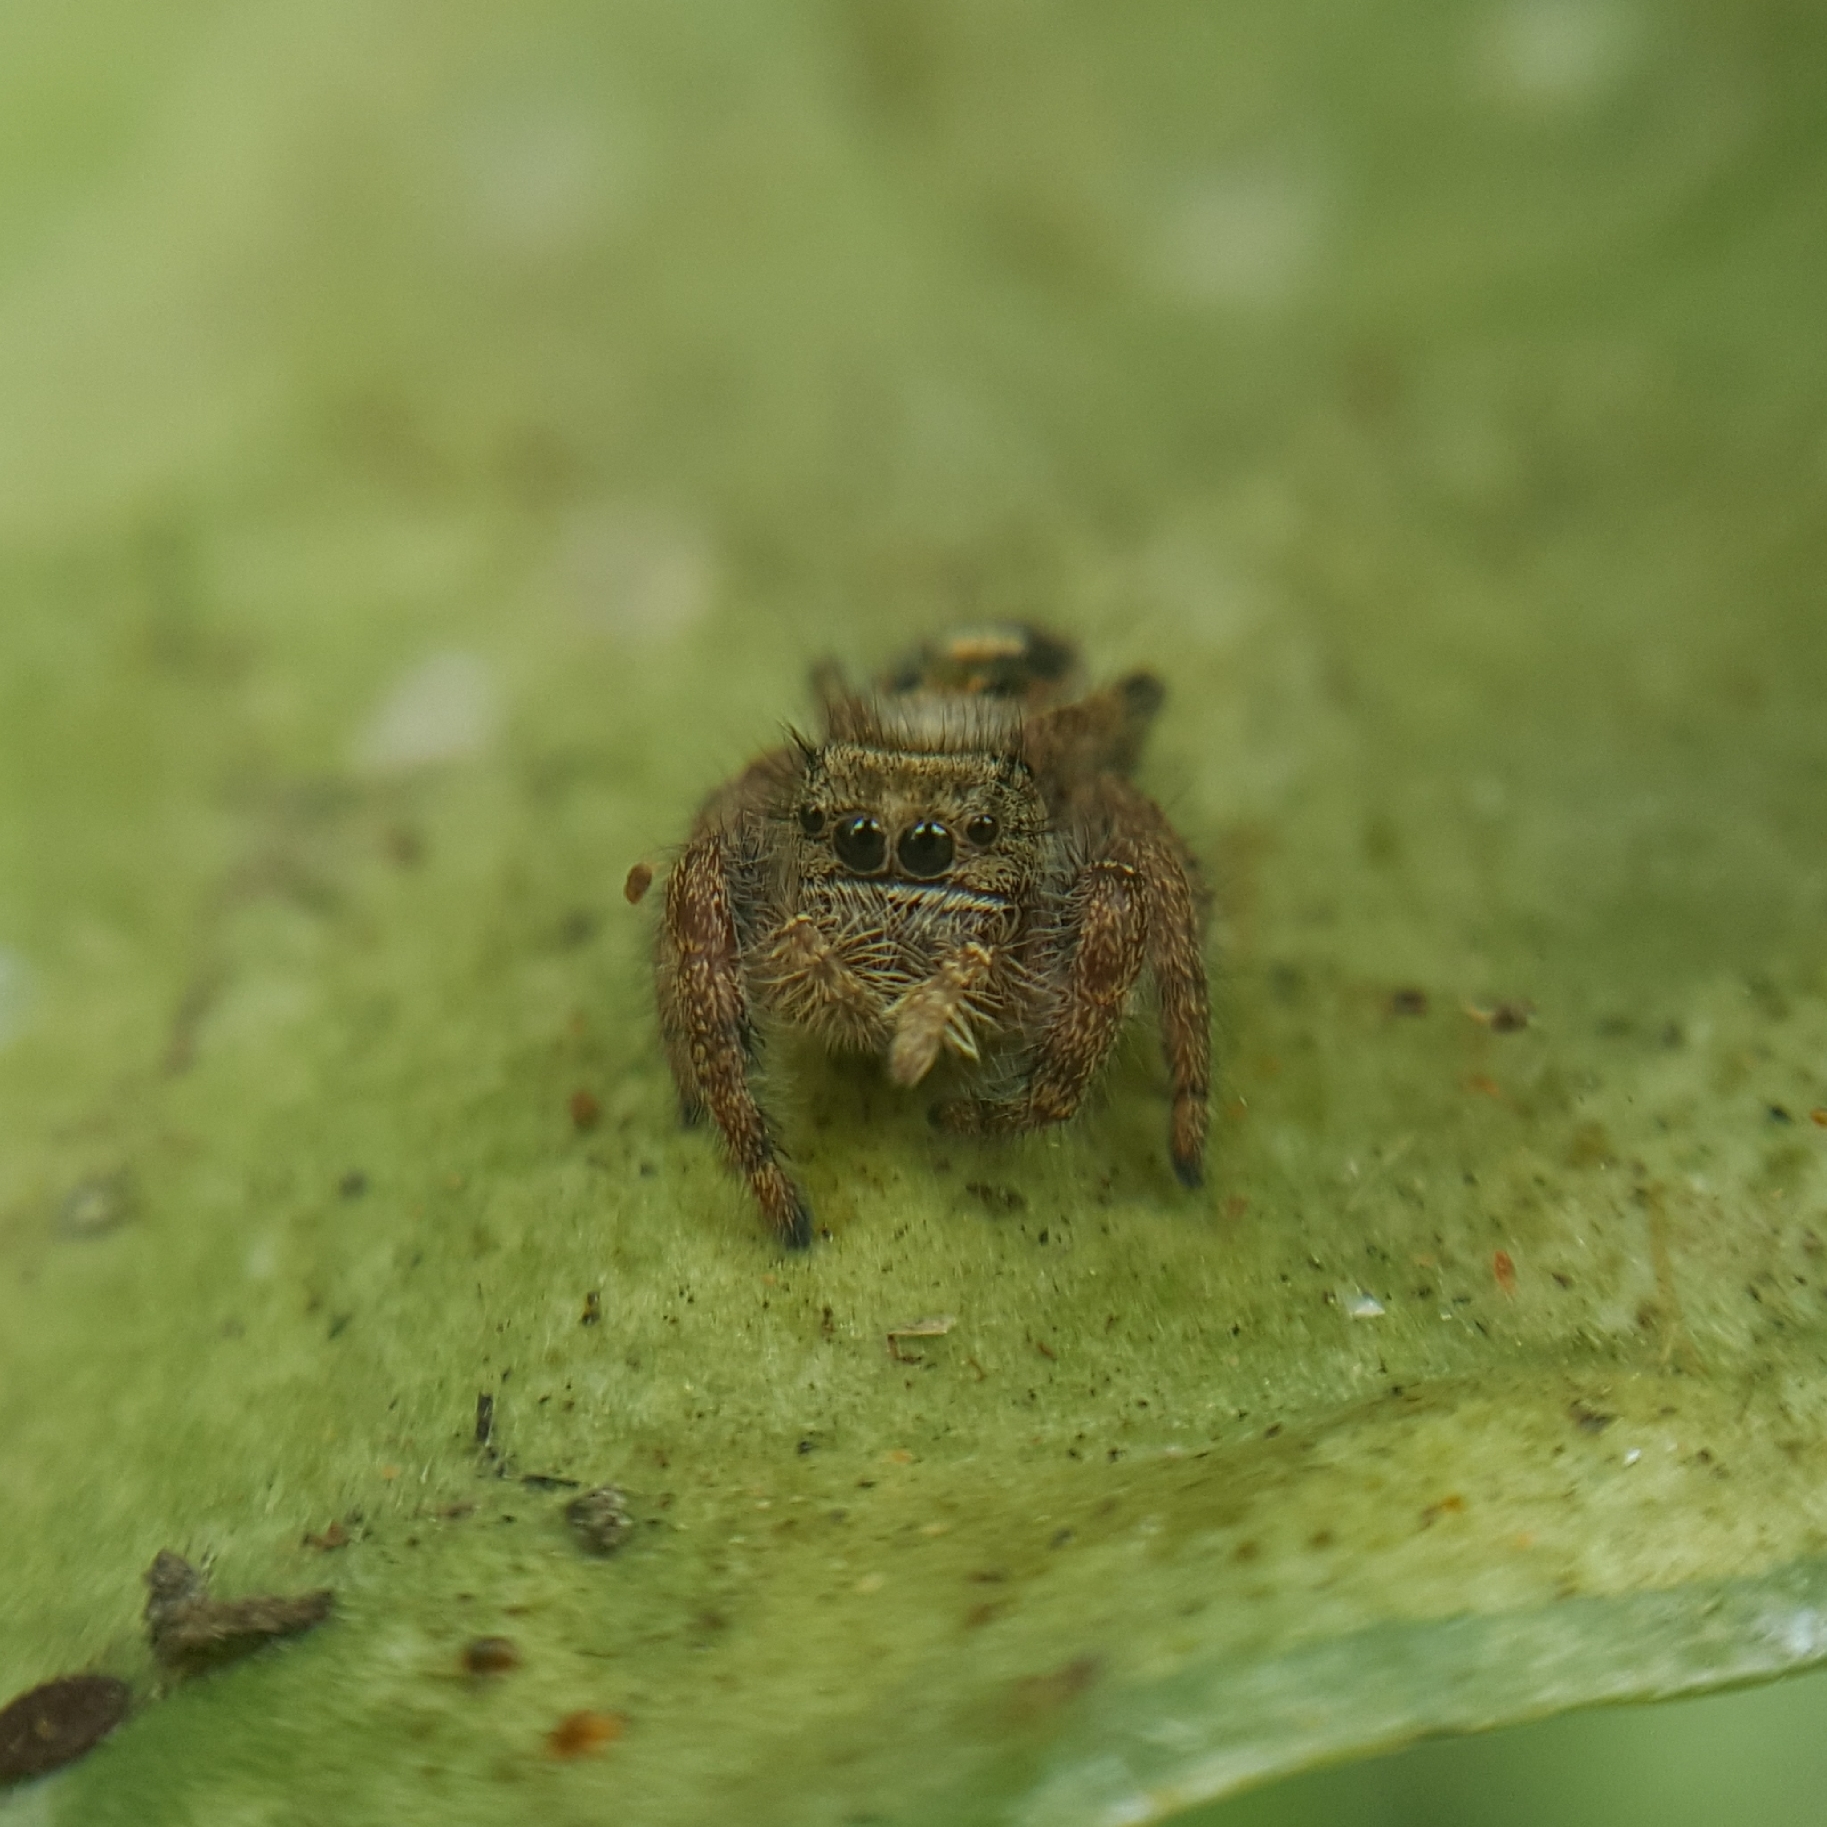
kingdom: Animalia
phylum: Arthropoda
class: Arachnida
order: Araneae
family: Salticidae
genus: Phidippus
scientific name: Phidippus audax
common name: Bold jumper
